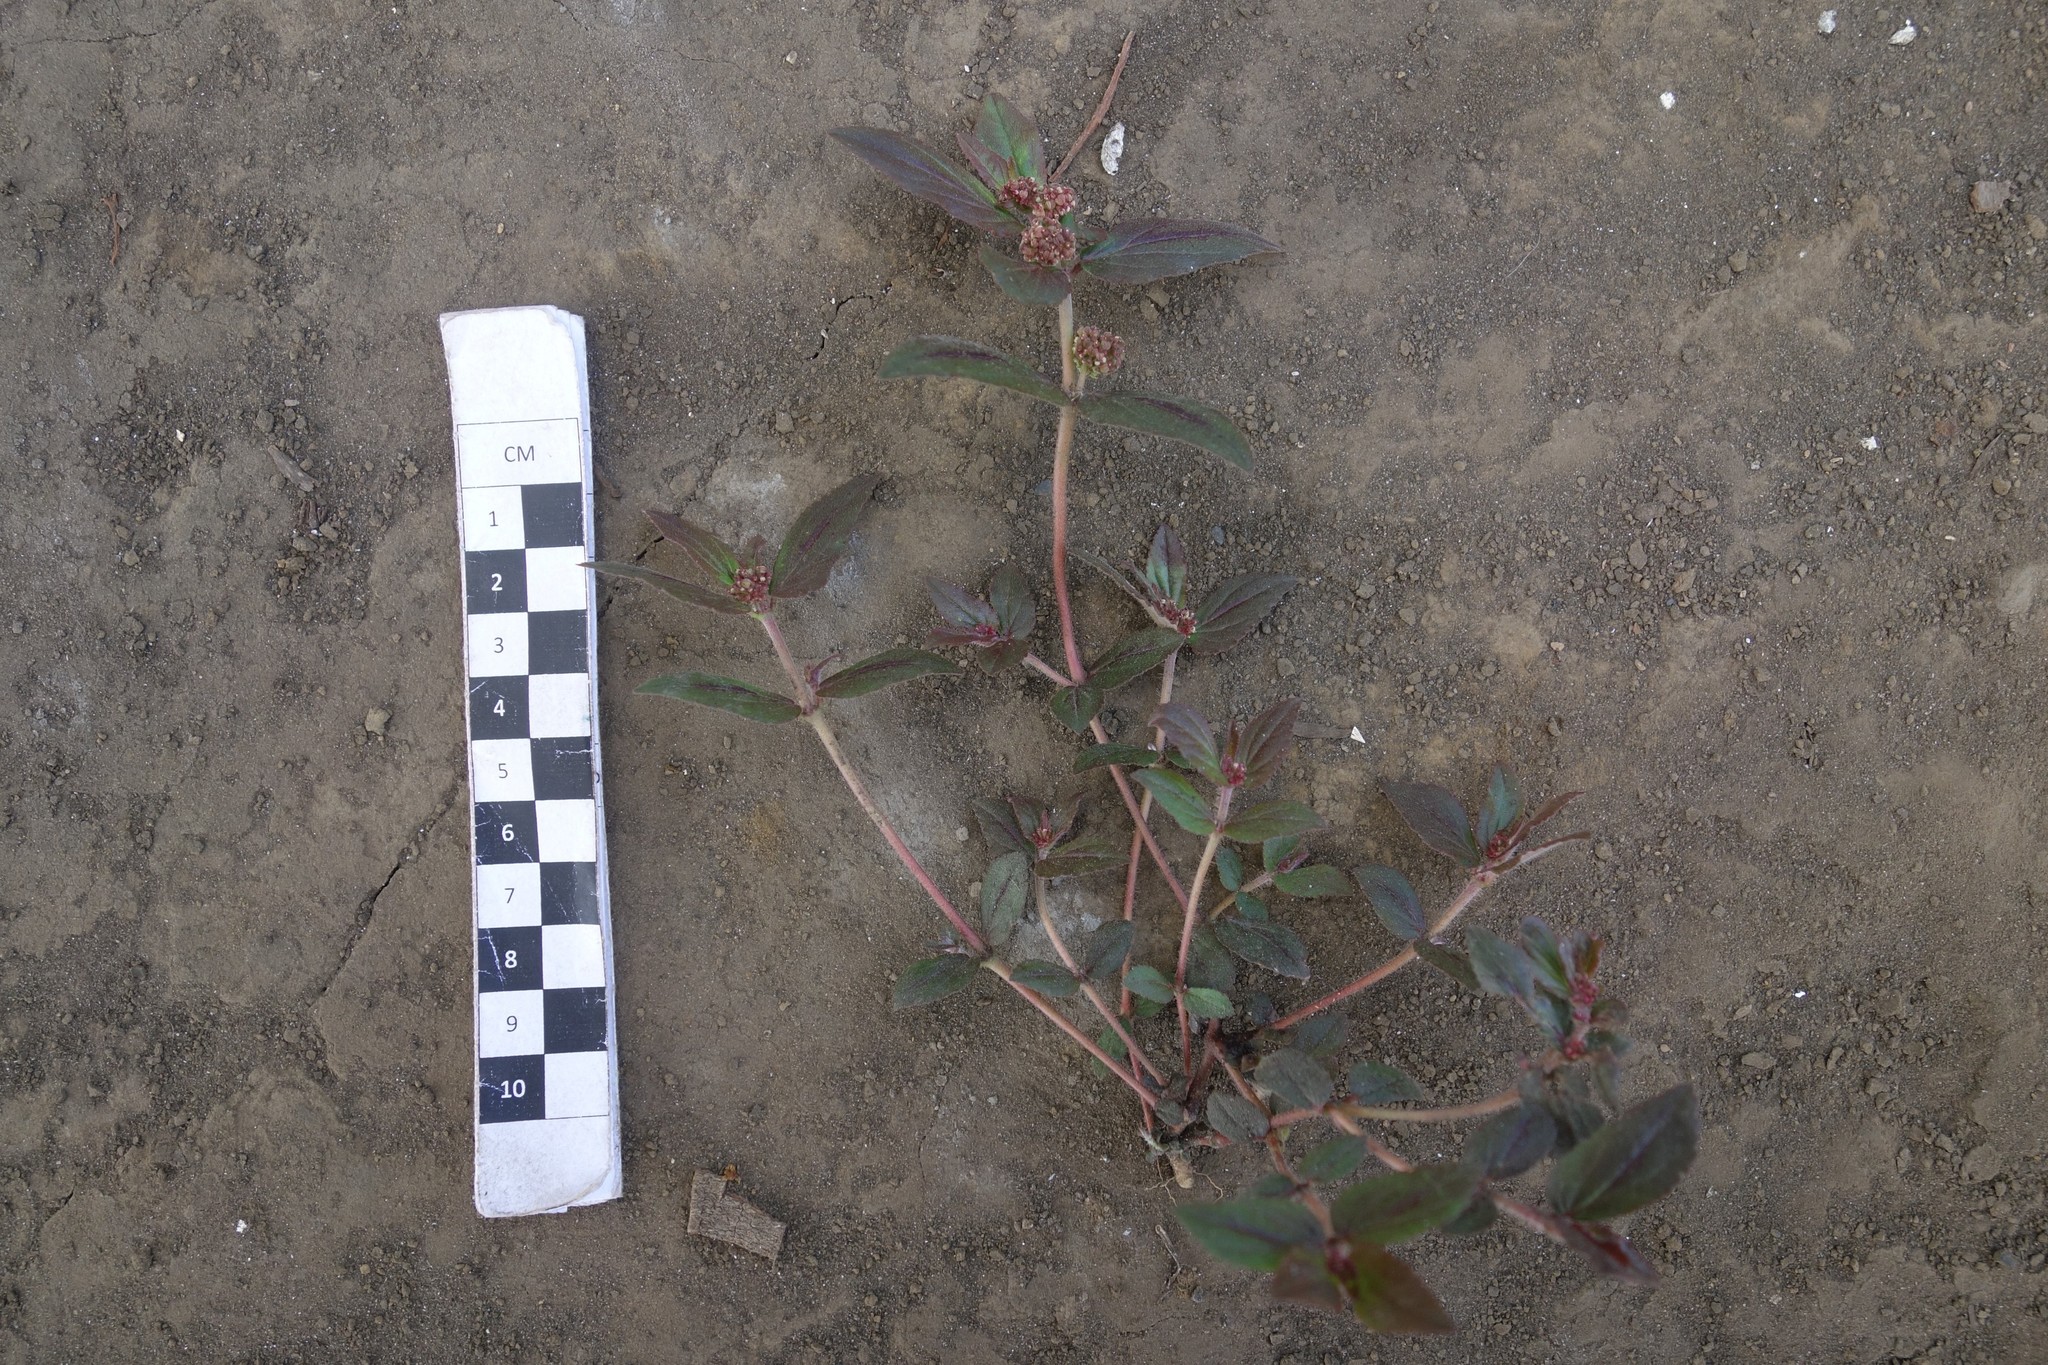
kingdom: Plantae
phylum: Tracheophyta
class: Magnoliopsida
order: Malpighiales
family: Euphorbiaceae
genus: Euphorbia
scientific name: Euphorbia hirta
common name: Pillpod sandmat
